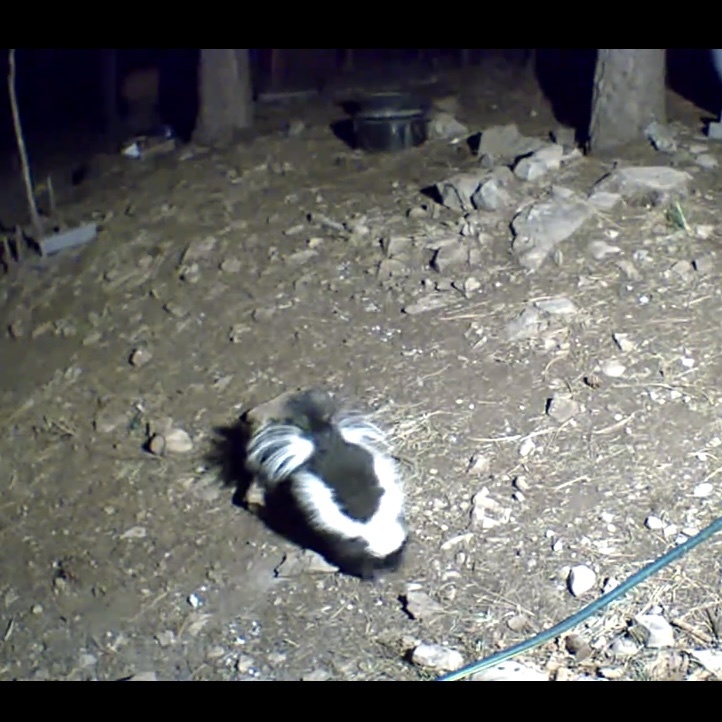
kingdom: Animalia
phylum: Chordata
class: Mammalia
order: Carnivora
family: Mephitidae
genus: Mephitis
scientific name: Mephitis mephitis
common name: Striped skunk
